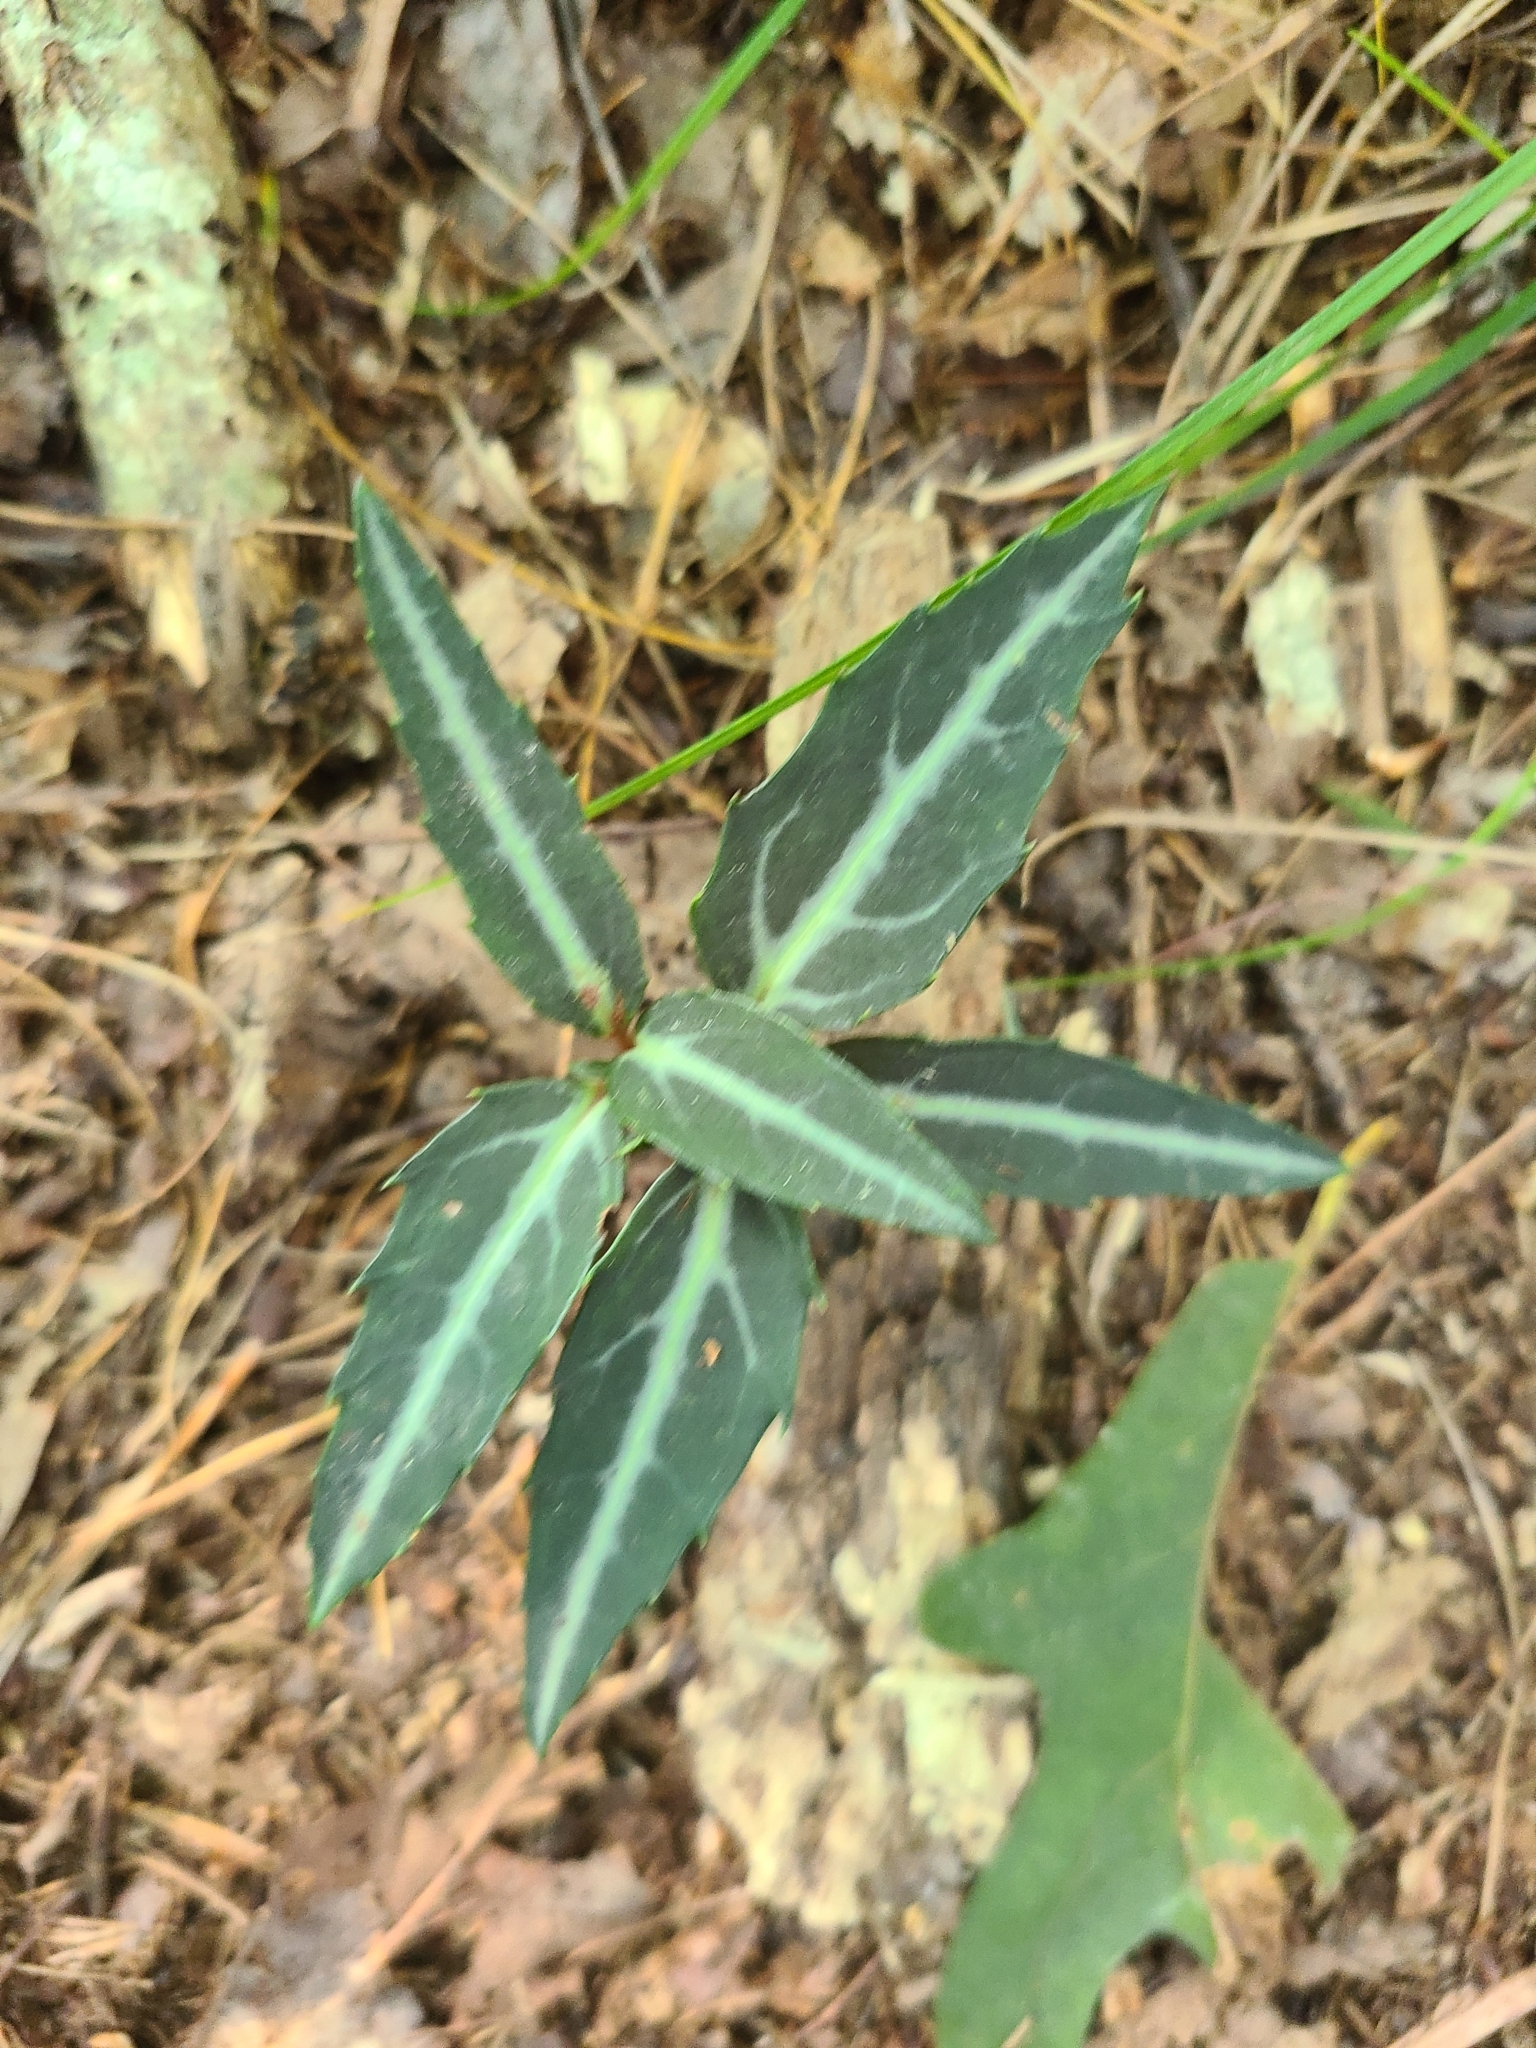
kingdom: Plantae
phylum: Tracheophyta
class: Magnoliopsida
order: Ericales
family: Ericaceae
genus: Chimaphila
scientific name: Chimaphila maculata
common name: Spotted pipsissewa
